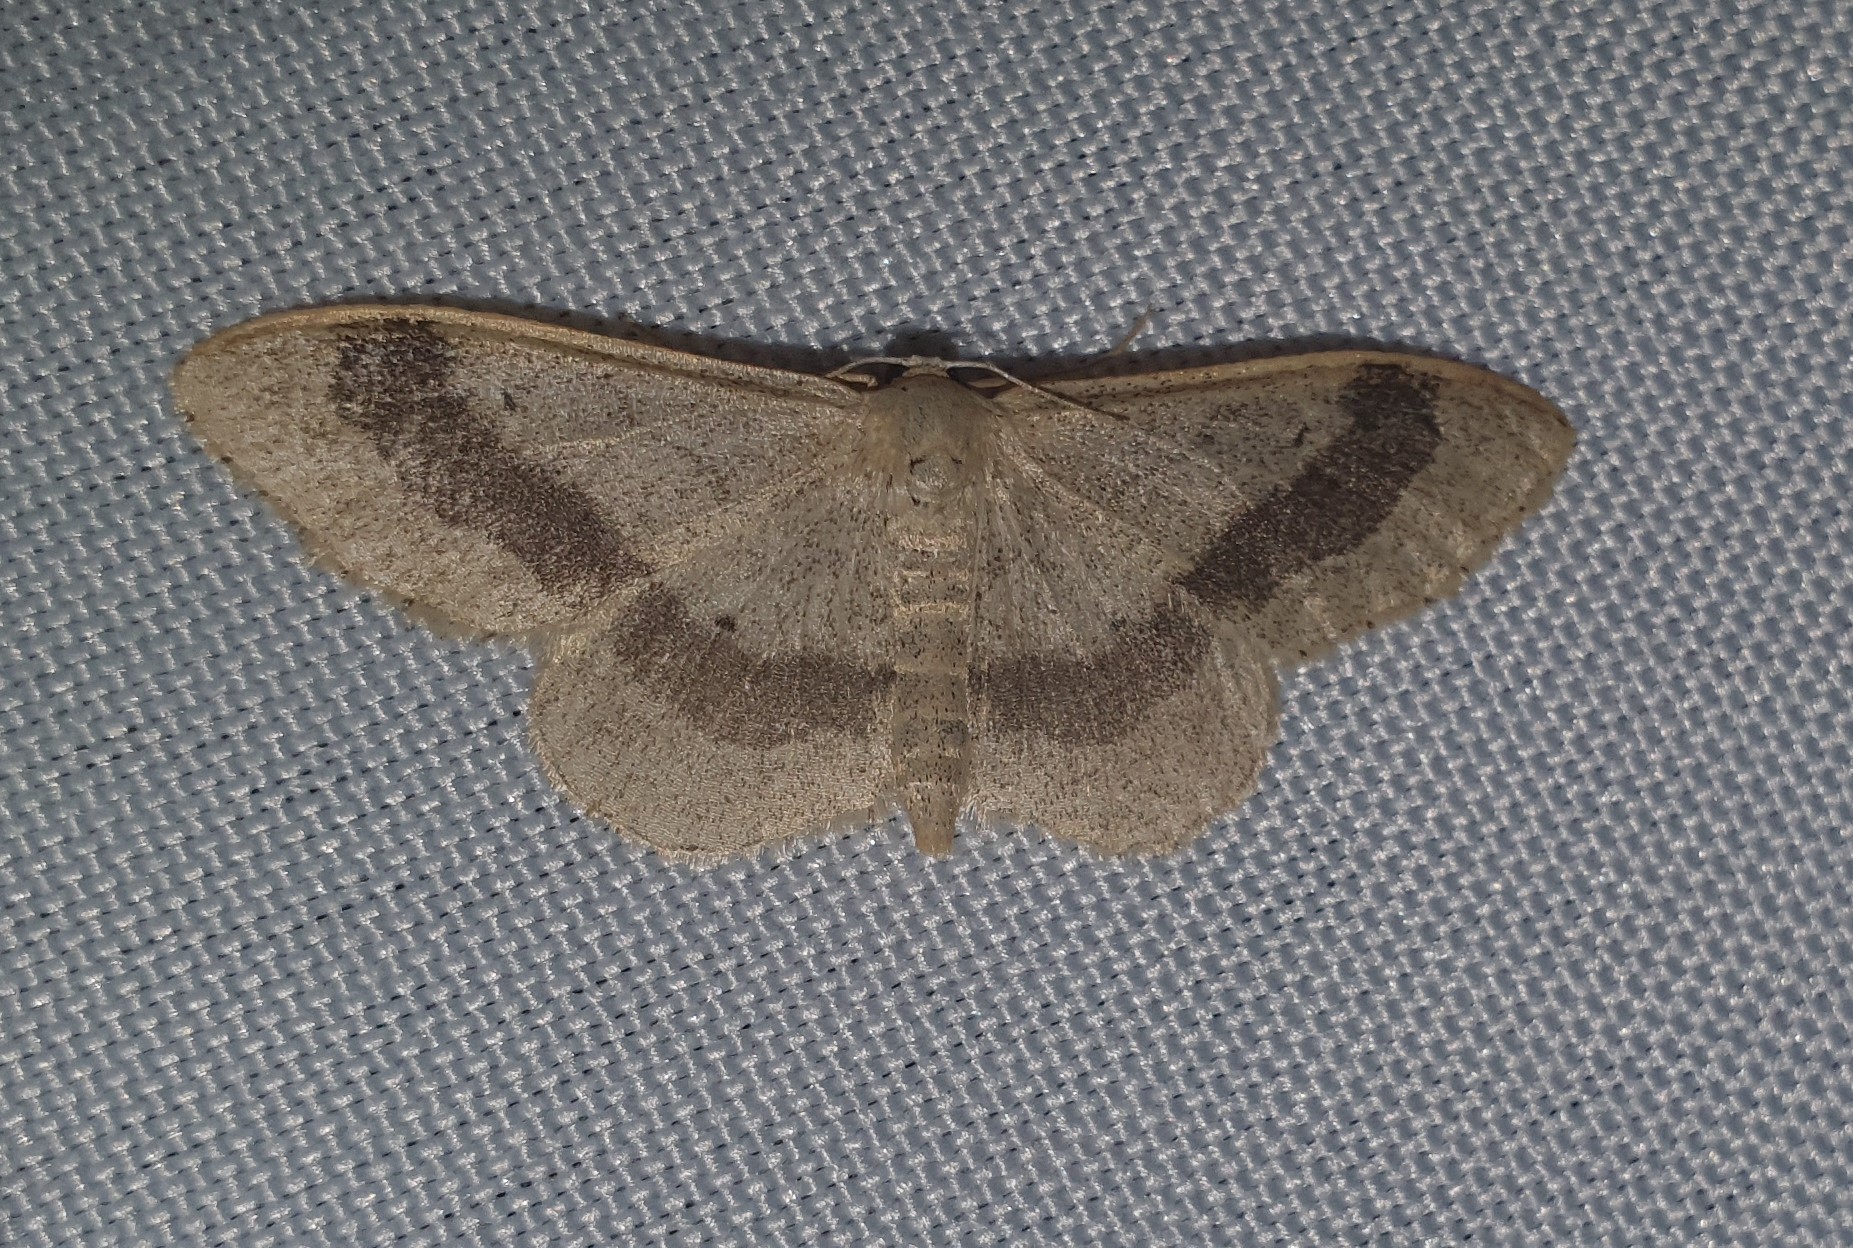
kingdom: Animalia
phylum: Arthropoda
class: Insecta
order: Lepidoptera
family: Geometridae
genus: Idaea
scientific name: Idaea aversata
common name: Riband wave
